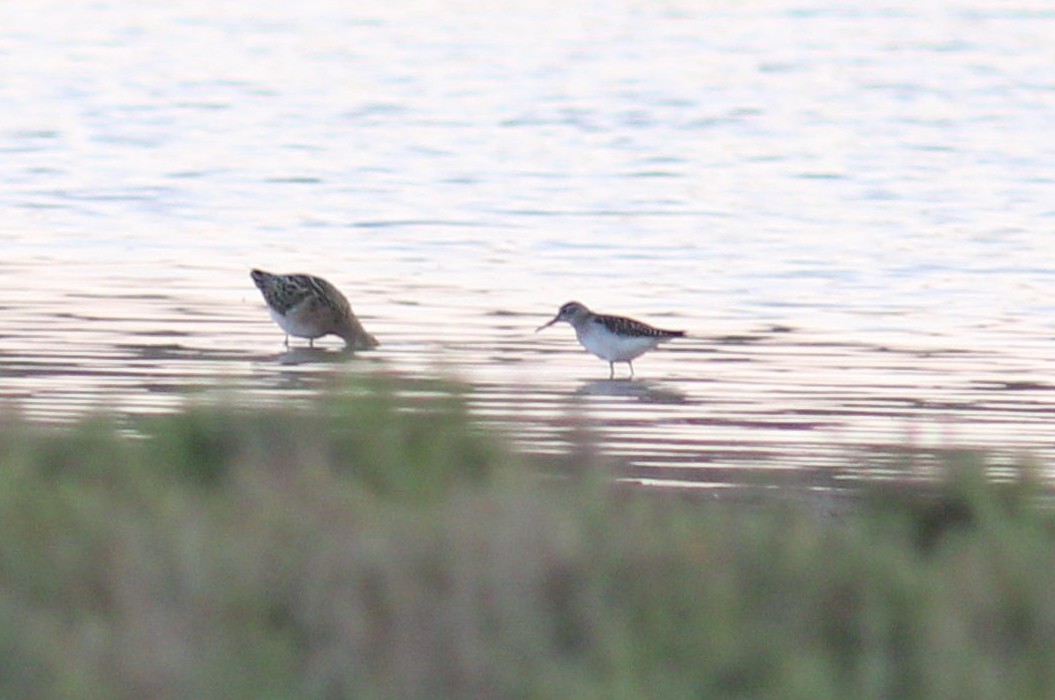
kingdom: Animalia
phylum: Chordata
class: Aves
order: Charadriiformes
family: Scolopacidae
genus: Tringa
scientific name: Tringa glareola
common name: Wood sandpiper
